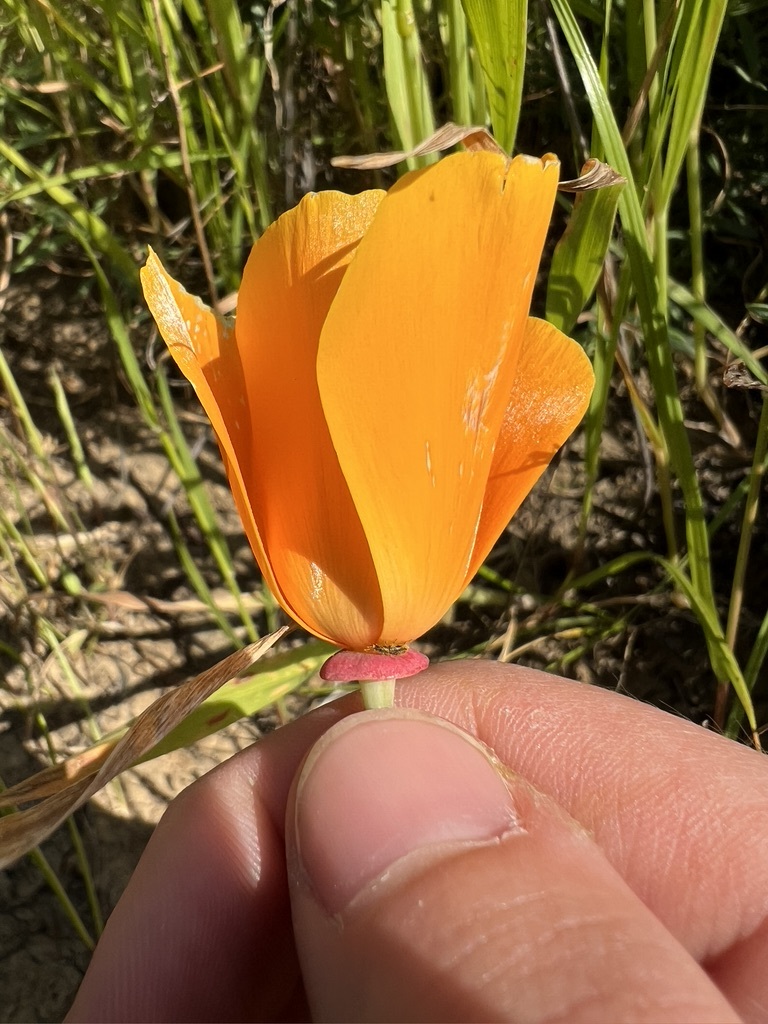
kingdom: Plantae
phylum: Tracheophyta
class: Magnoliopsida
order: Ranunculales
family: Papaveraceae
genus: Eschscholzia
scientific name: Eschscholzia californica
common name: California poppy
